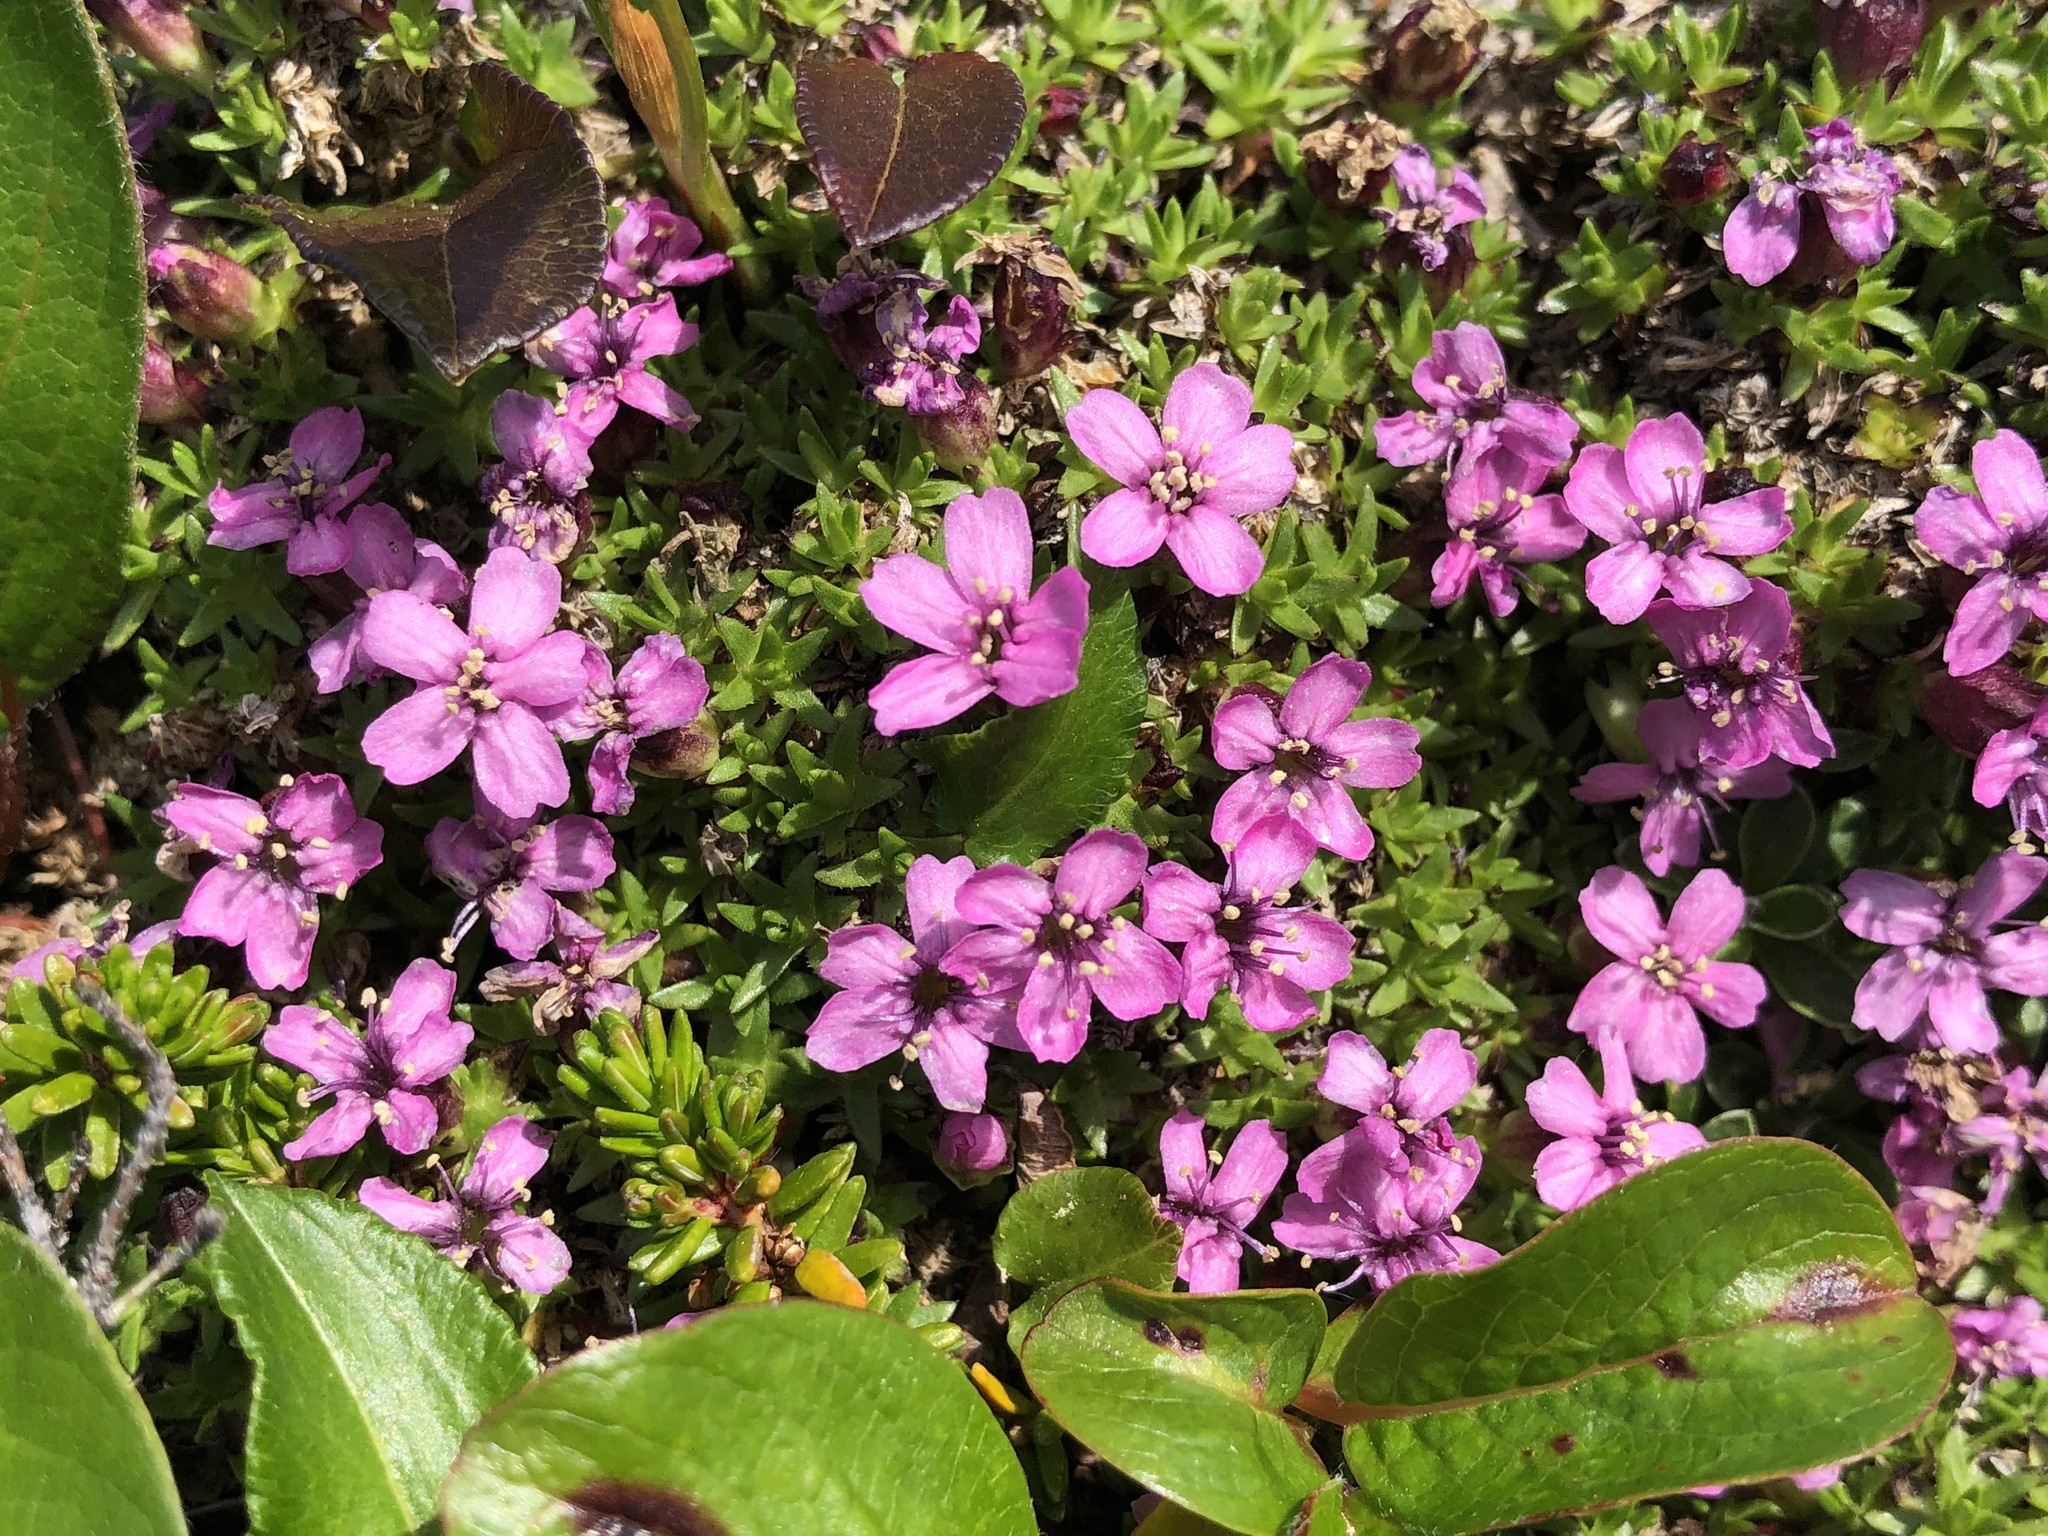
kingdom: Plantae
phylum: Tracheophyta
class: Magnoliopsida
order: Caryophyllales
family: Caryophyllaceae
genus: Silene
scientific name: Silene acaulis
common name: Moss campion
